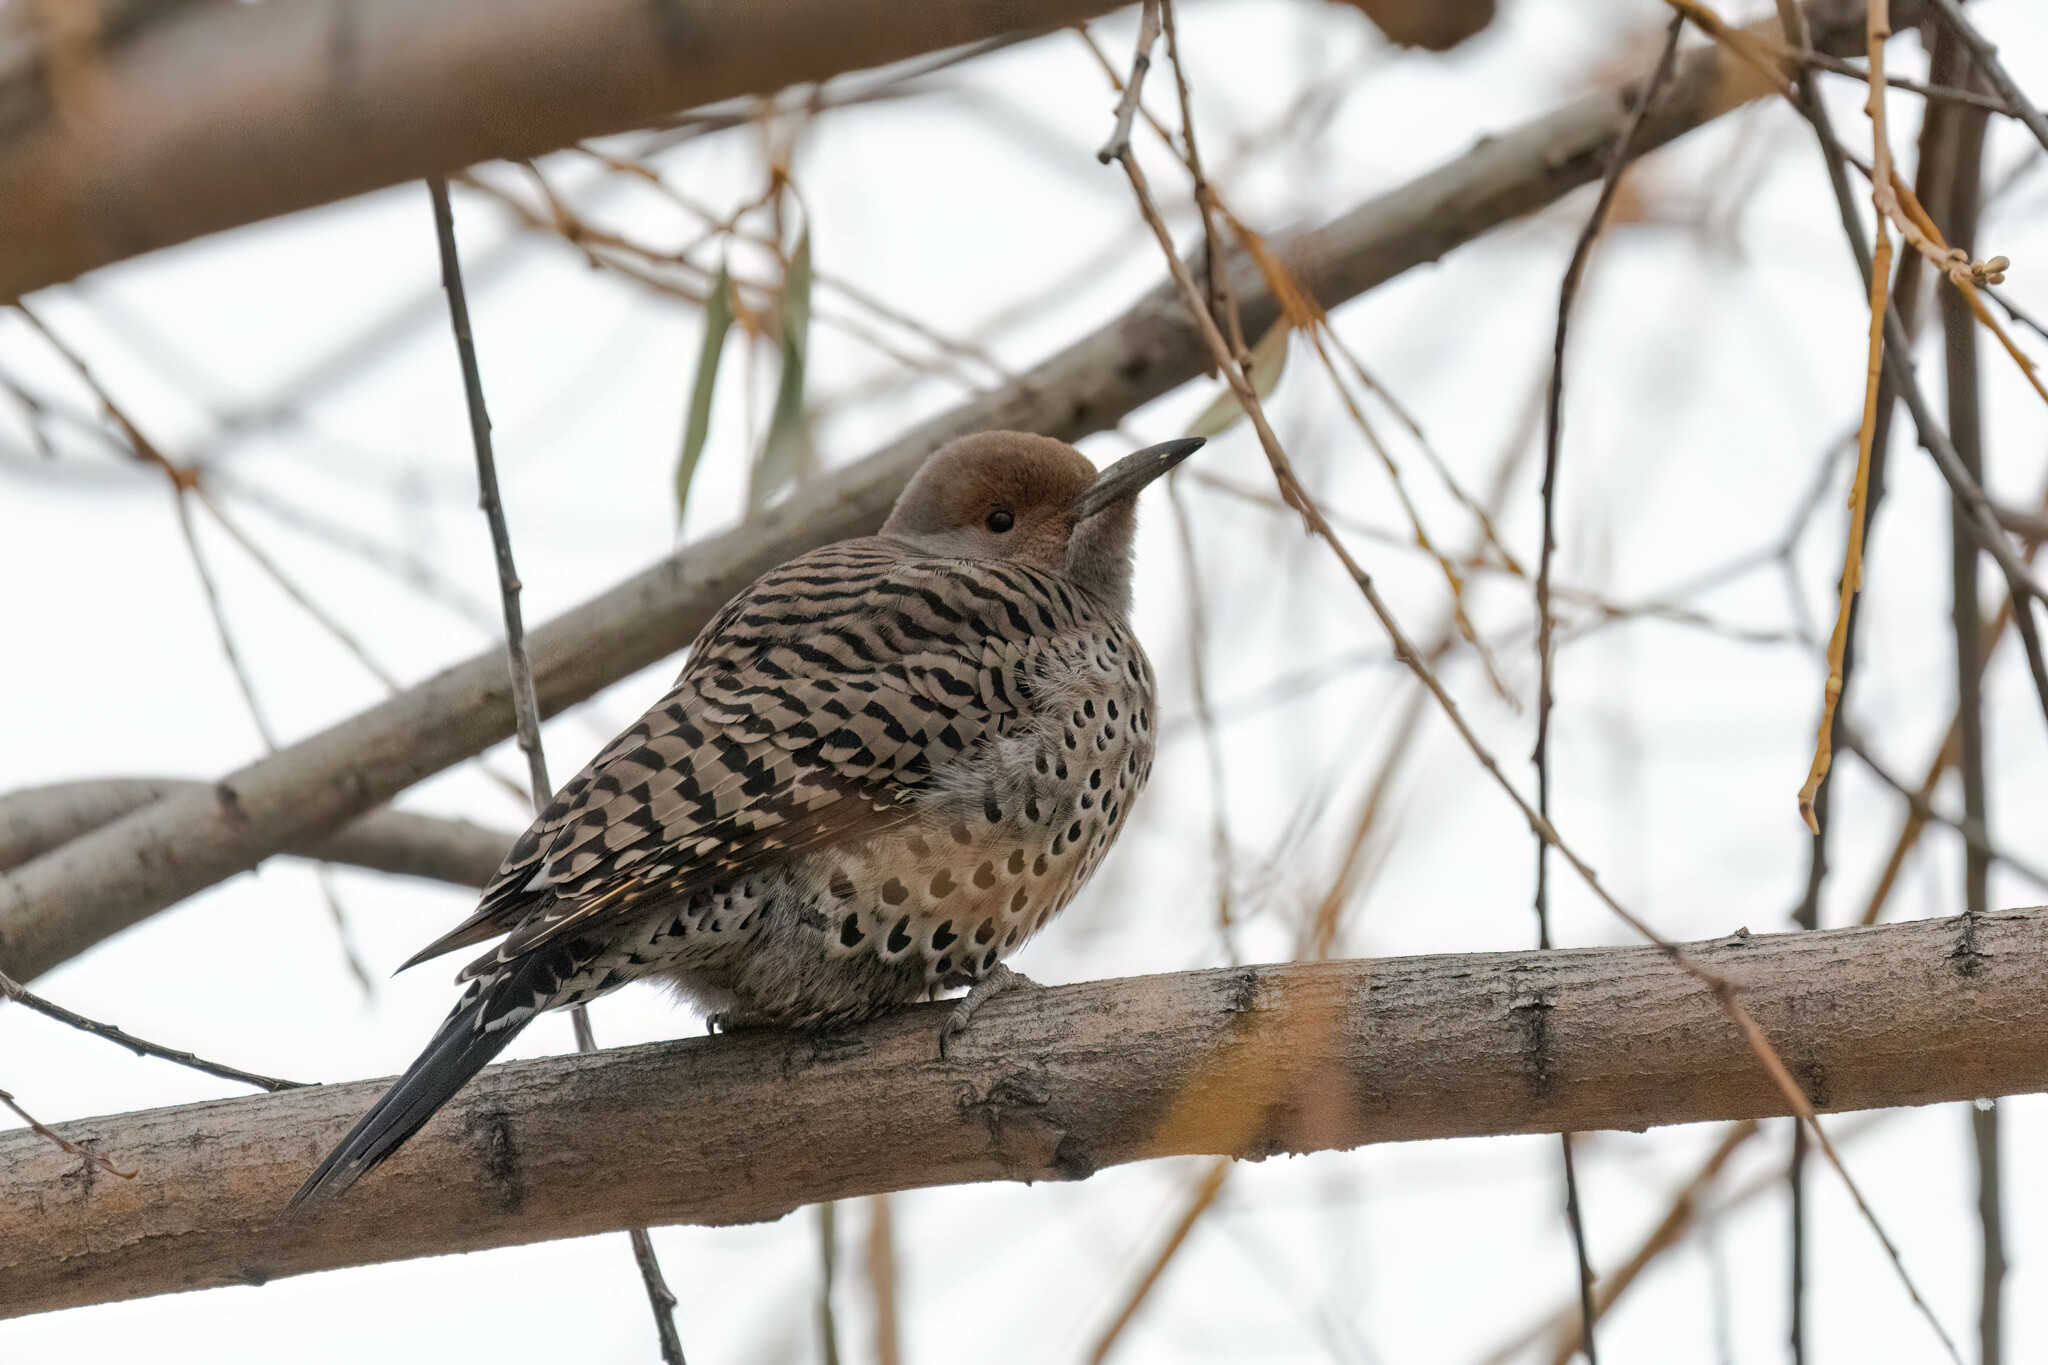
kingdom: Animalia
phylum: Chordata
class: Aves
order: Piciformes
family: Picidae
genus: Colaptes
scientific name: Colaptes auratus
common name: Northern flicker
